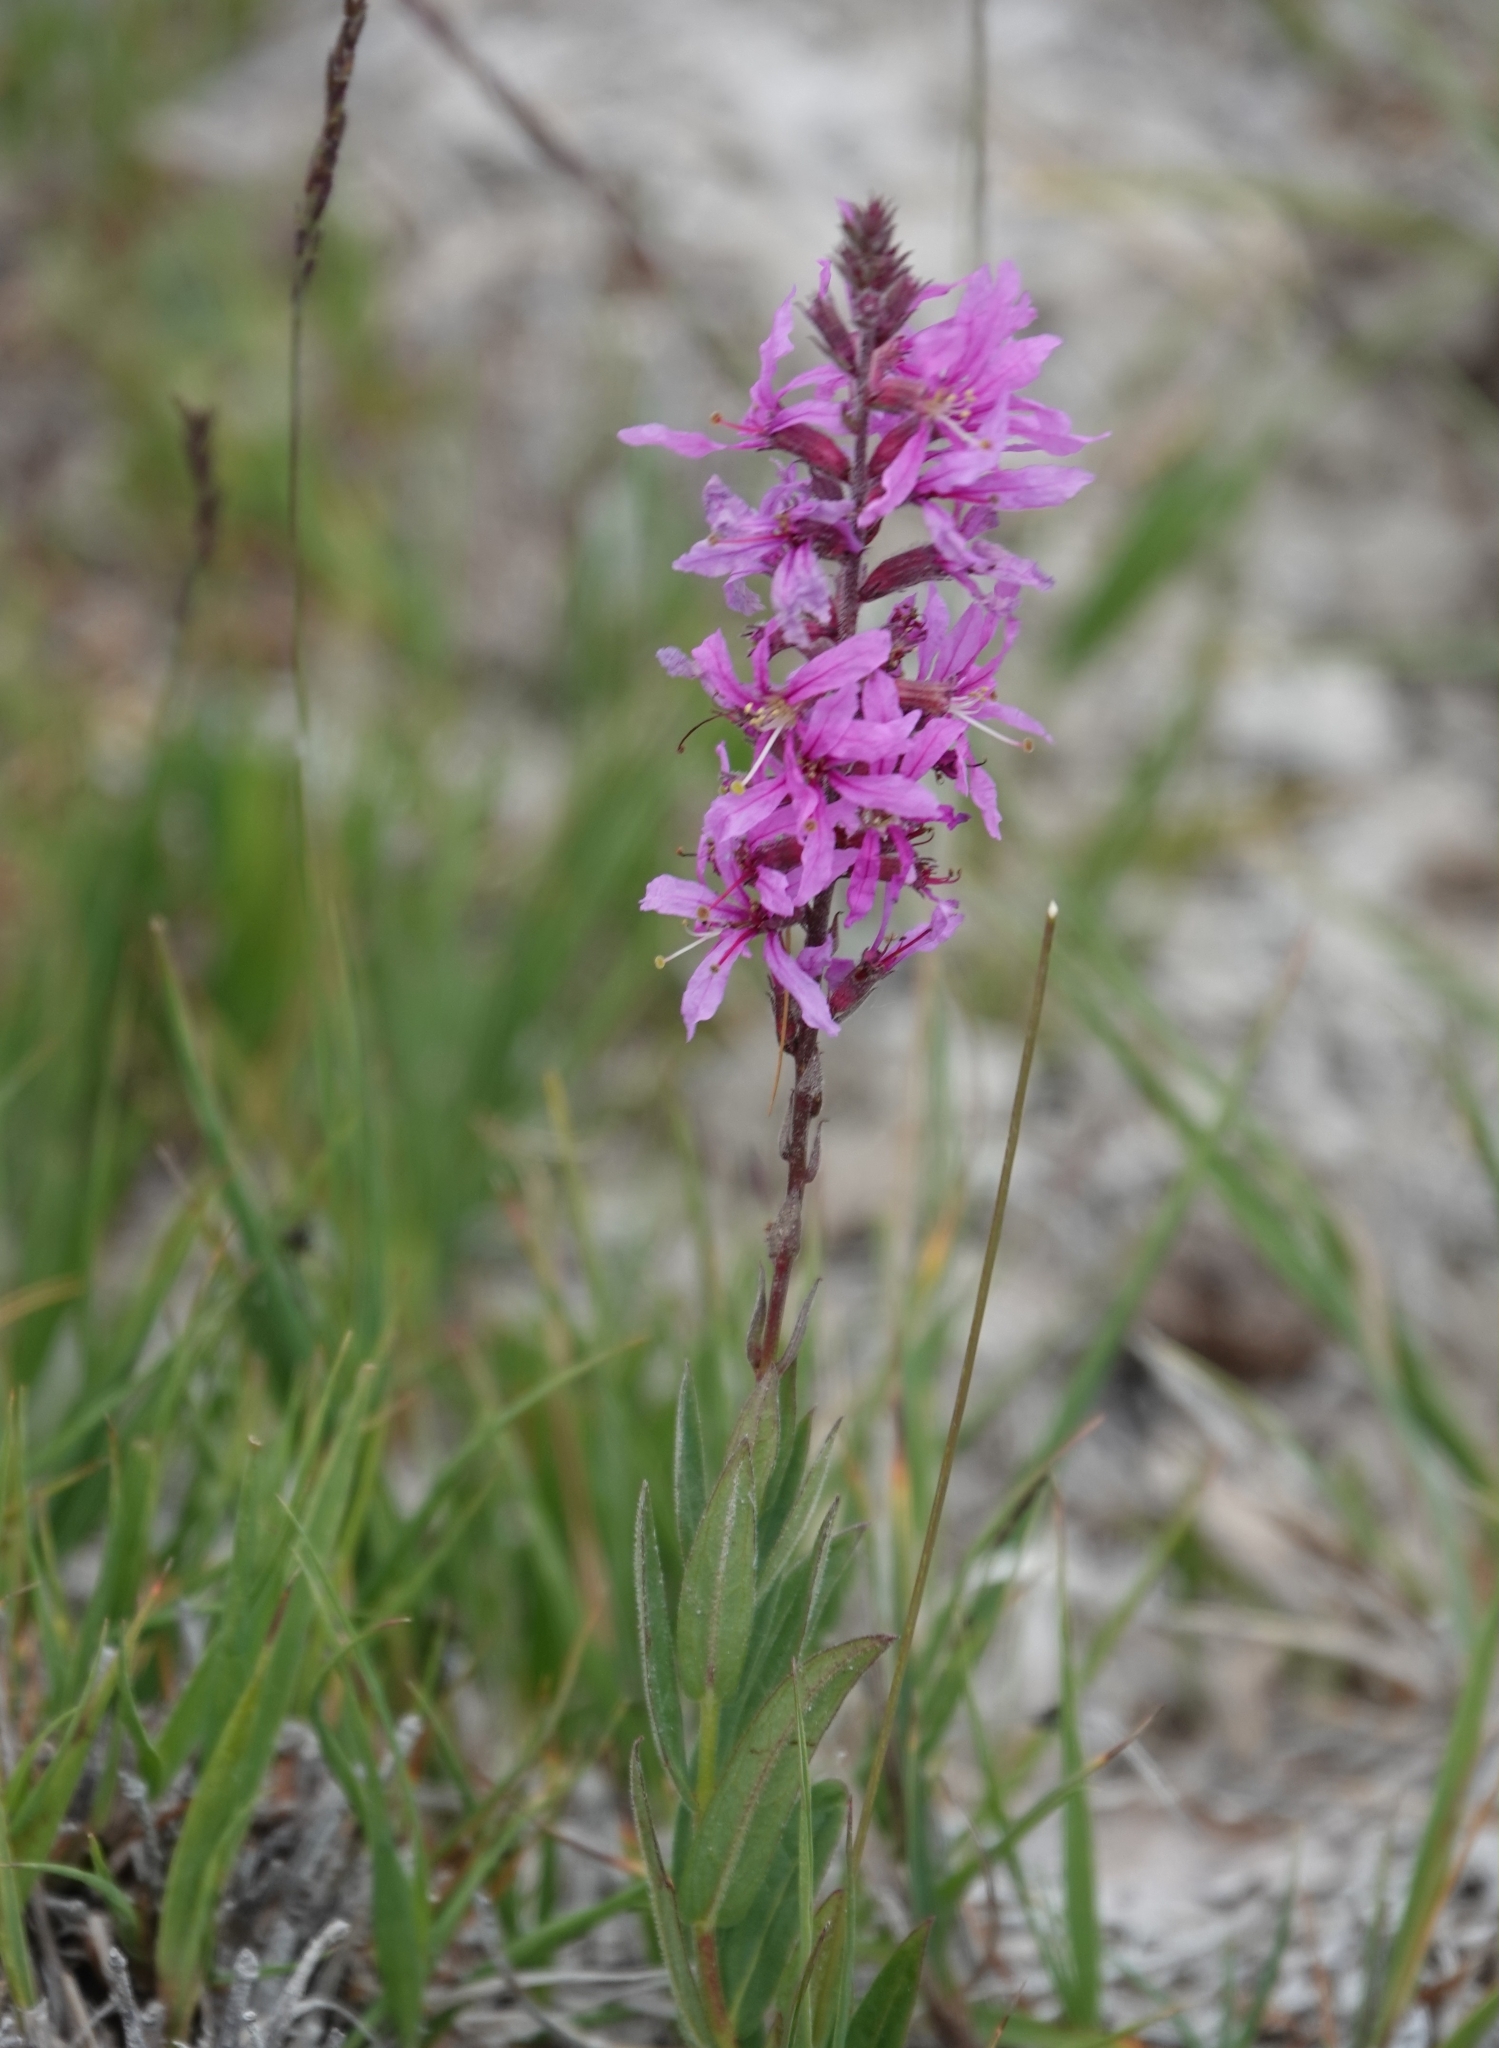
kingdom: Plantae
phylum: Tracheophyta
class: Magnoliopsida
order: Myrtales
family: Lythraceae
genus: Lythrum
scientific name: Lythrum salicaria
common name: Purple loosestrife
